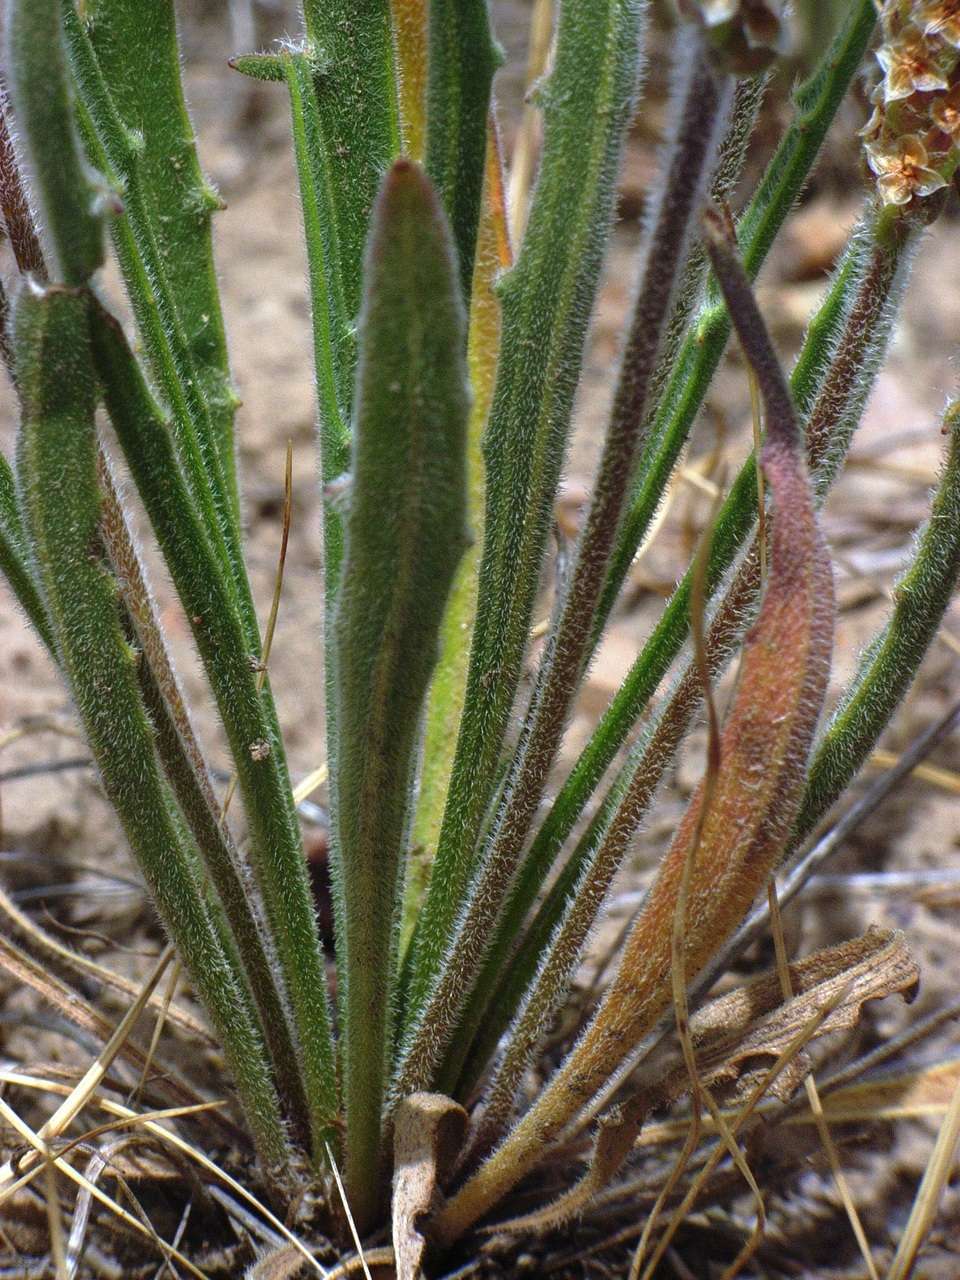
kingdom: Plantae
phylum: Tracheophyta
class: Magnoliopsida
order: Lamiales
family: Plantaginaceae
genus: Plantago
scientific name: Plantago gaudichaudii
